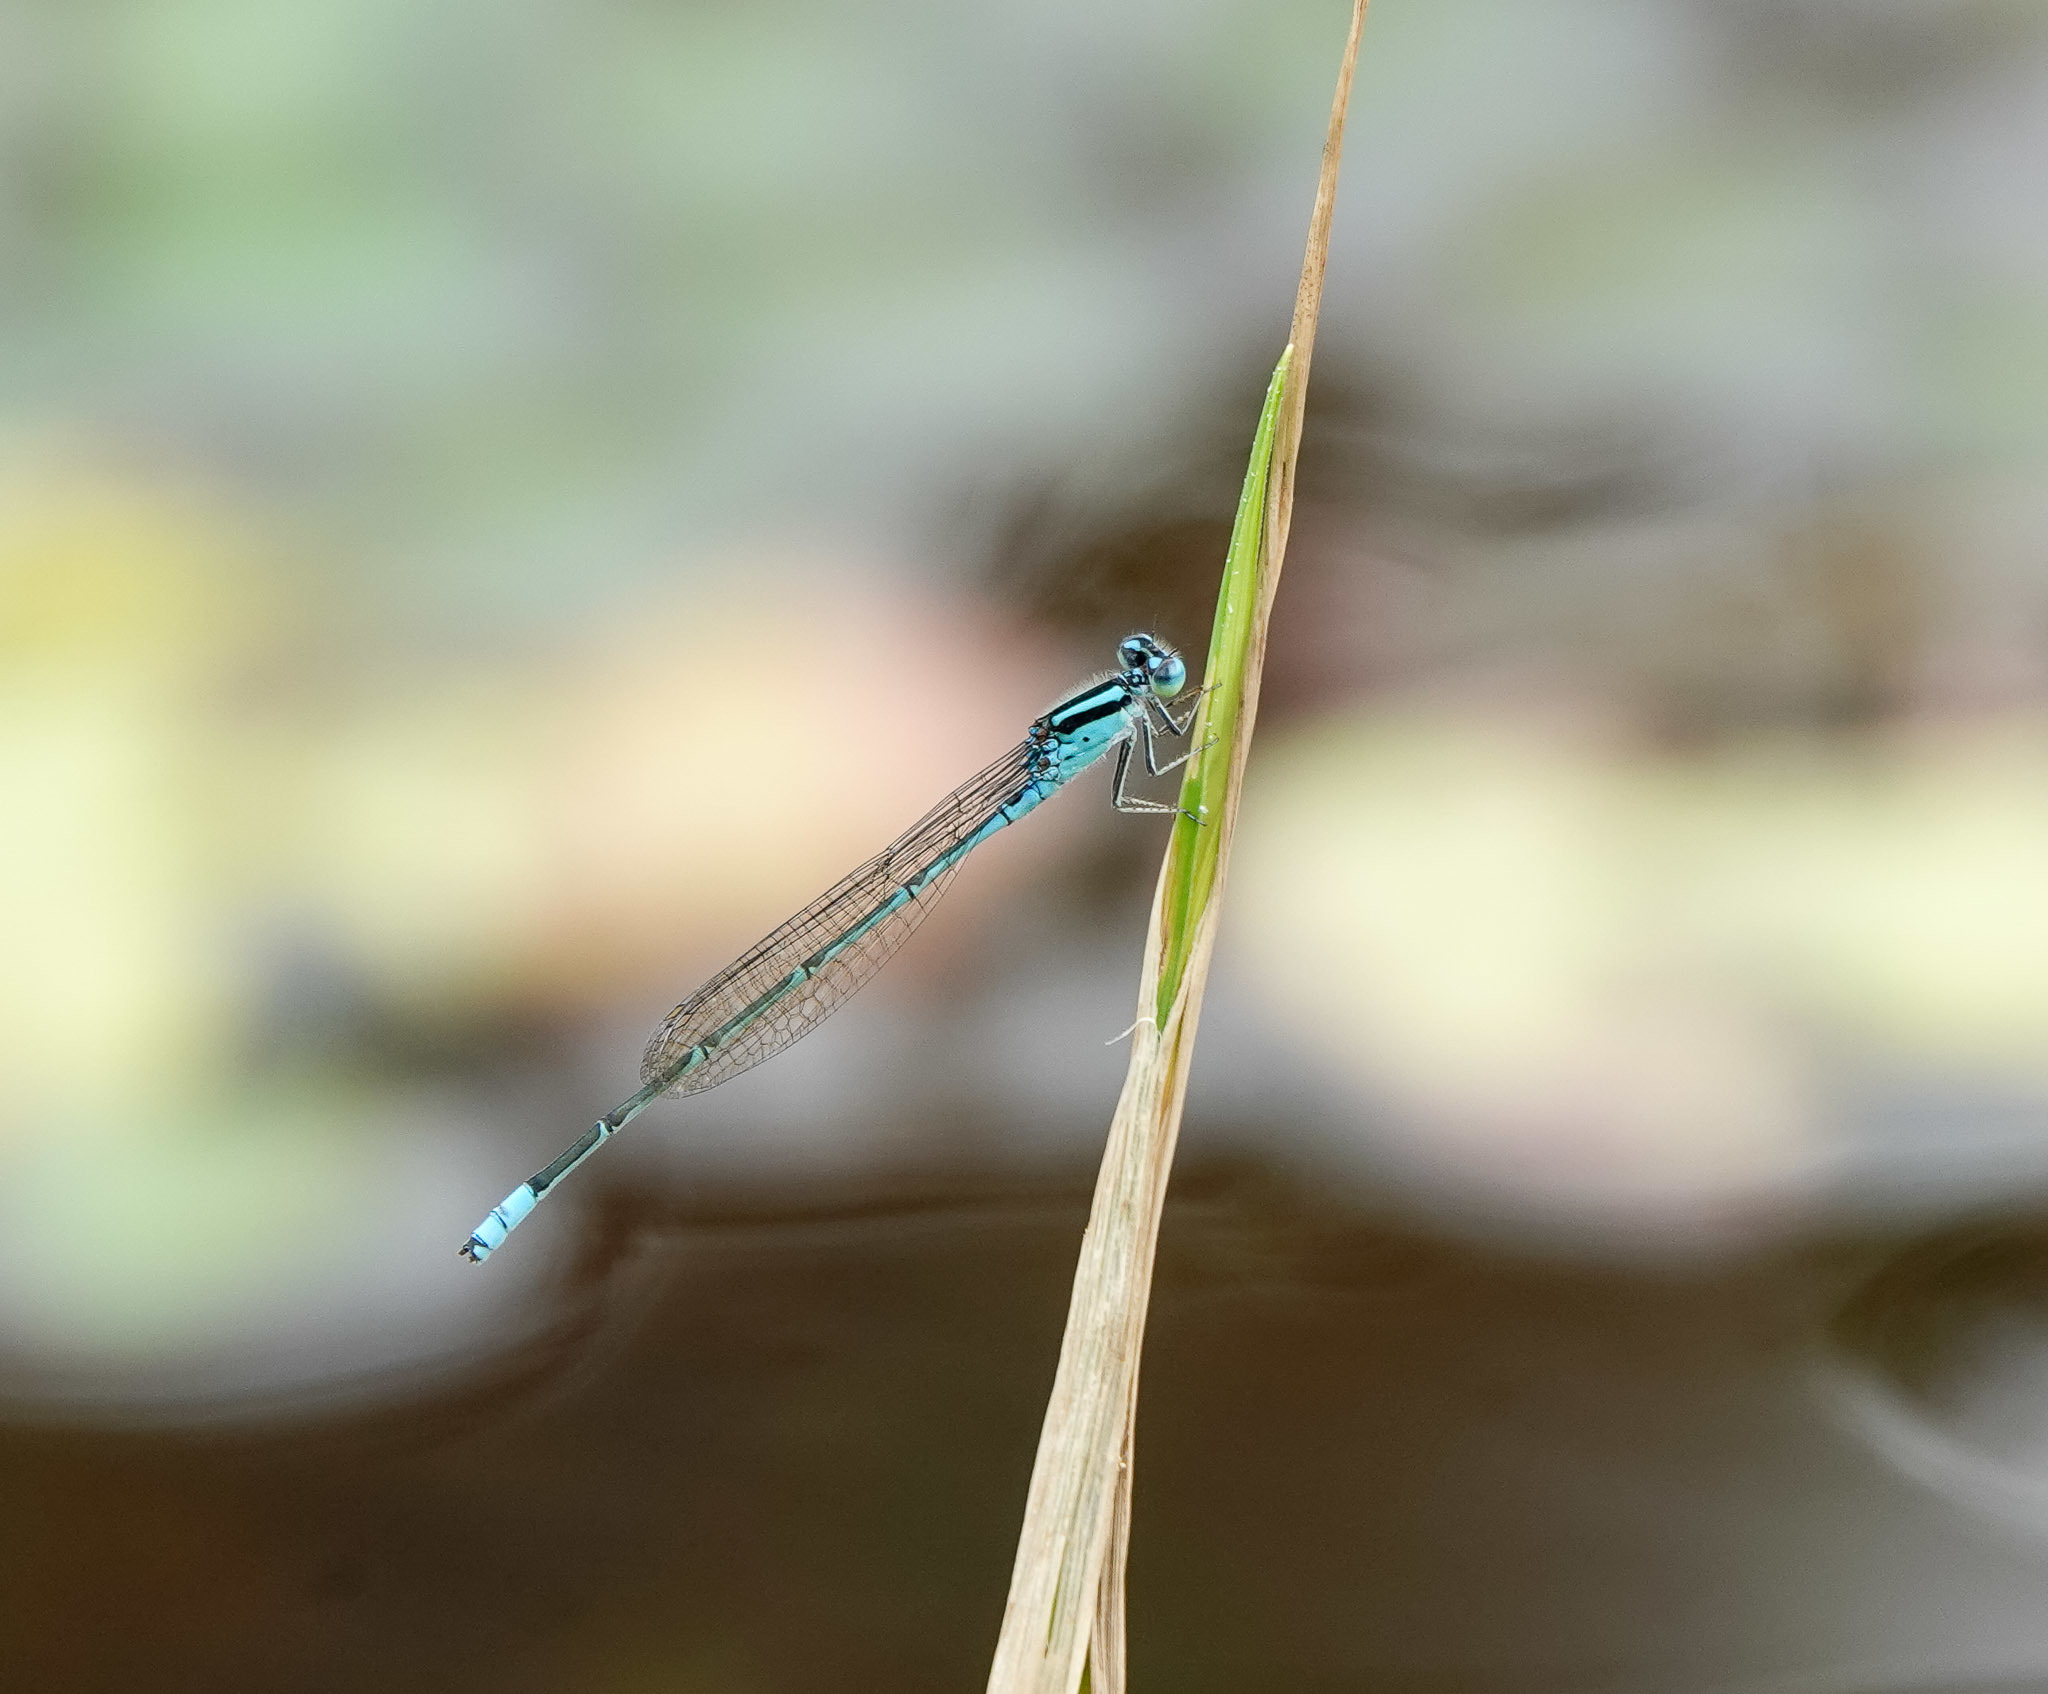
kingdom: Animalia
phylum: Arthropoda
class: Insecta
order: Odonata
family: Coenagrionidae
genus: Pseudagrion
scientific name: Pseudagrion australasiae
